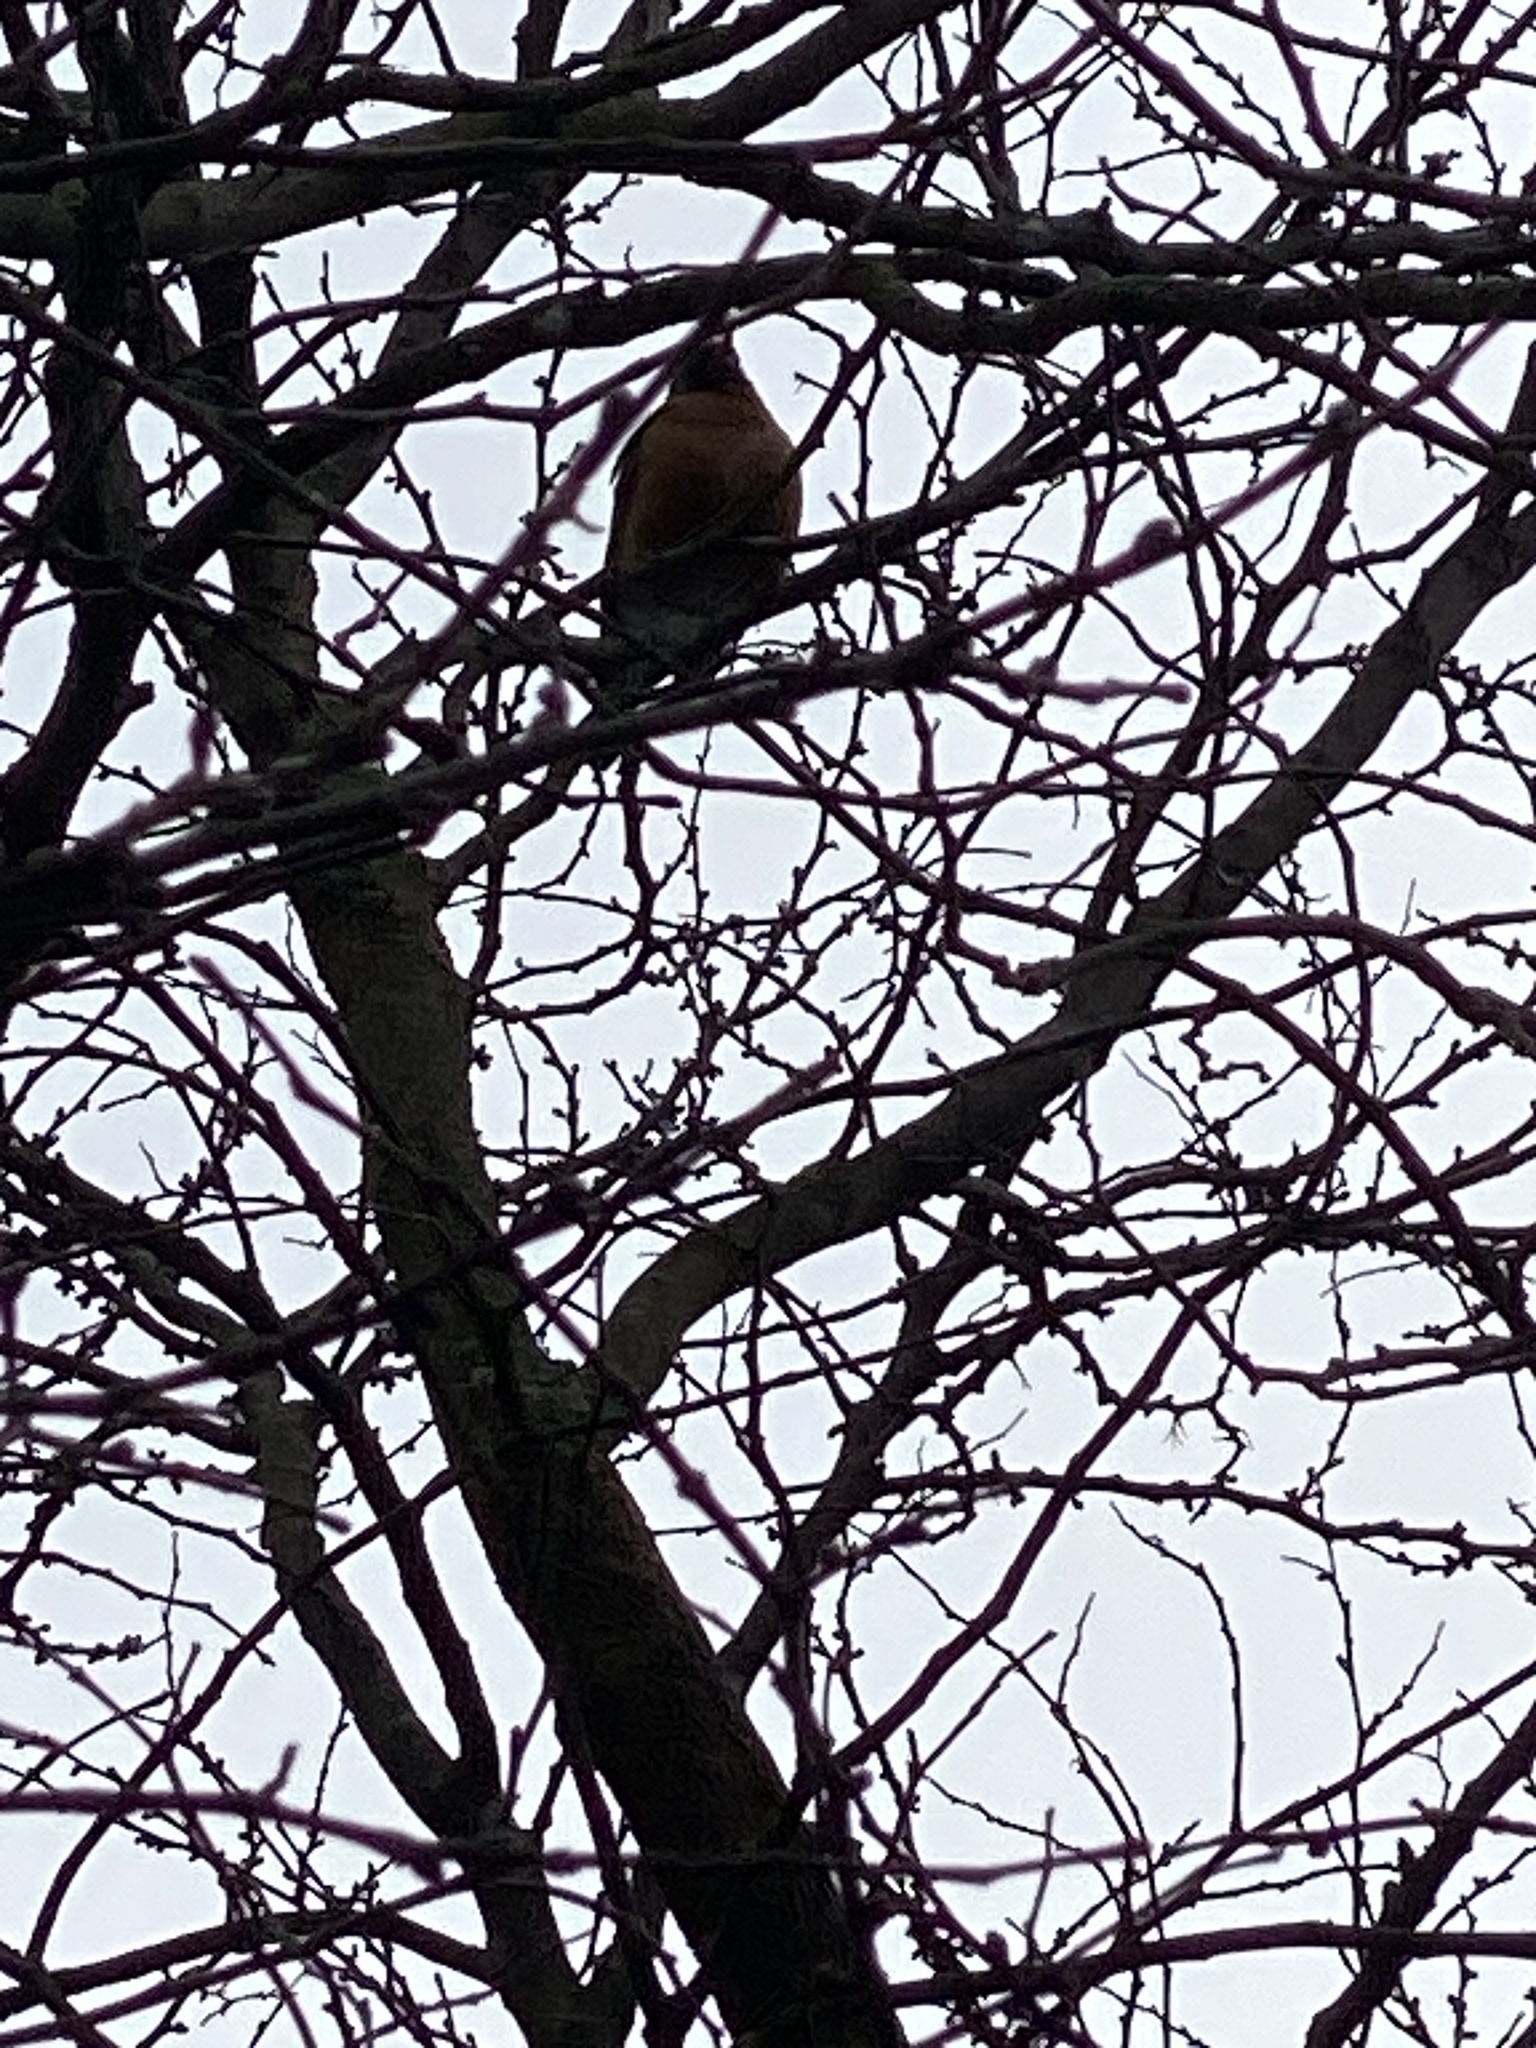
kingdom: Animalia
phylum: Chordata
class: Aves
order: Passeriformes
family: Turdidae
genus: Turdus
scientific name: Turdus migratorius
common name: American robin
